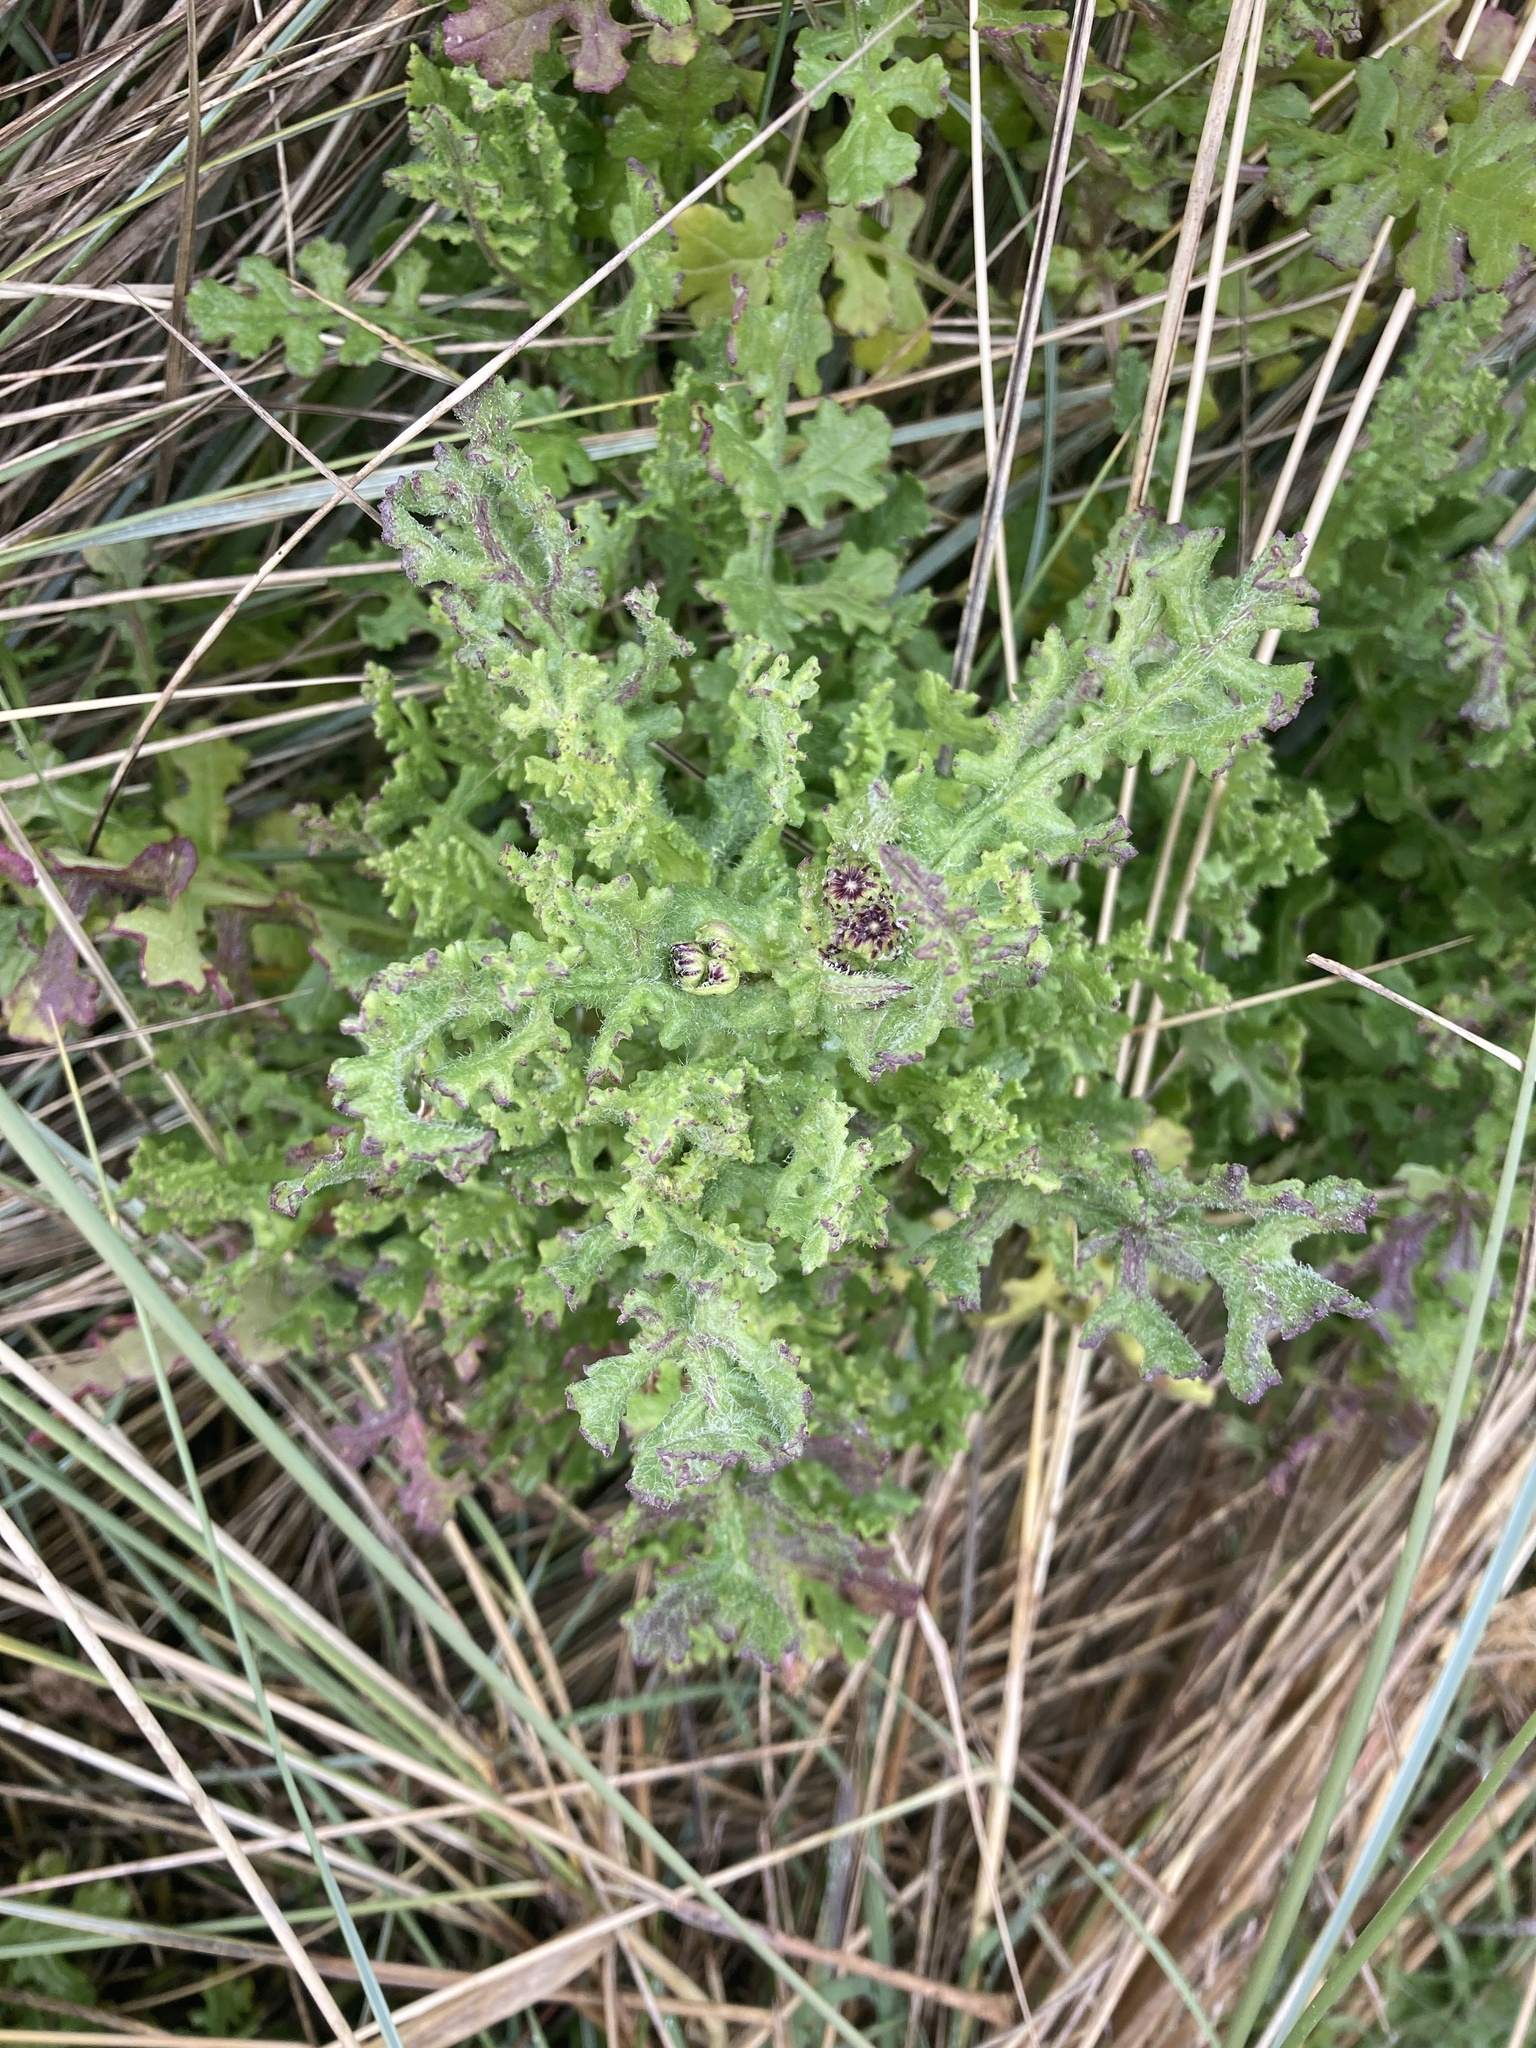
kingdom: Plantae
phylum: Tracheophyta
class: Magnoliopsida
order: Asterales
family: Asteraceae
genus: Senecio
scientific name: Senecio elegans
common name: Purple groundsel
